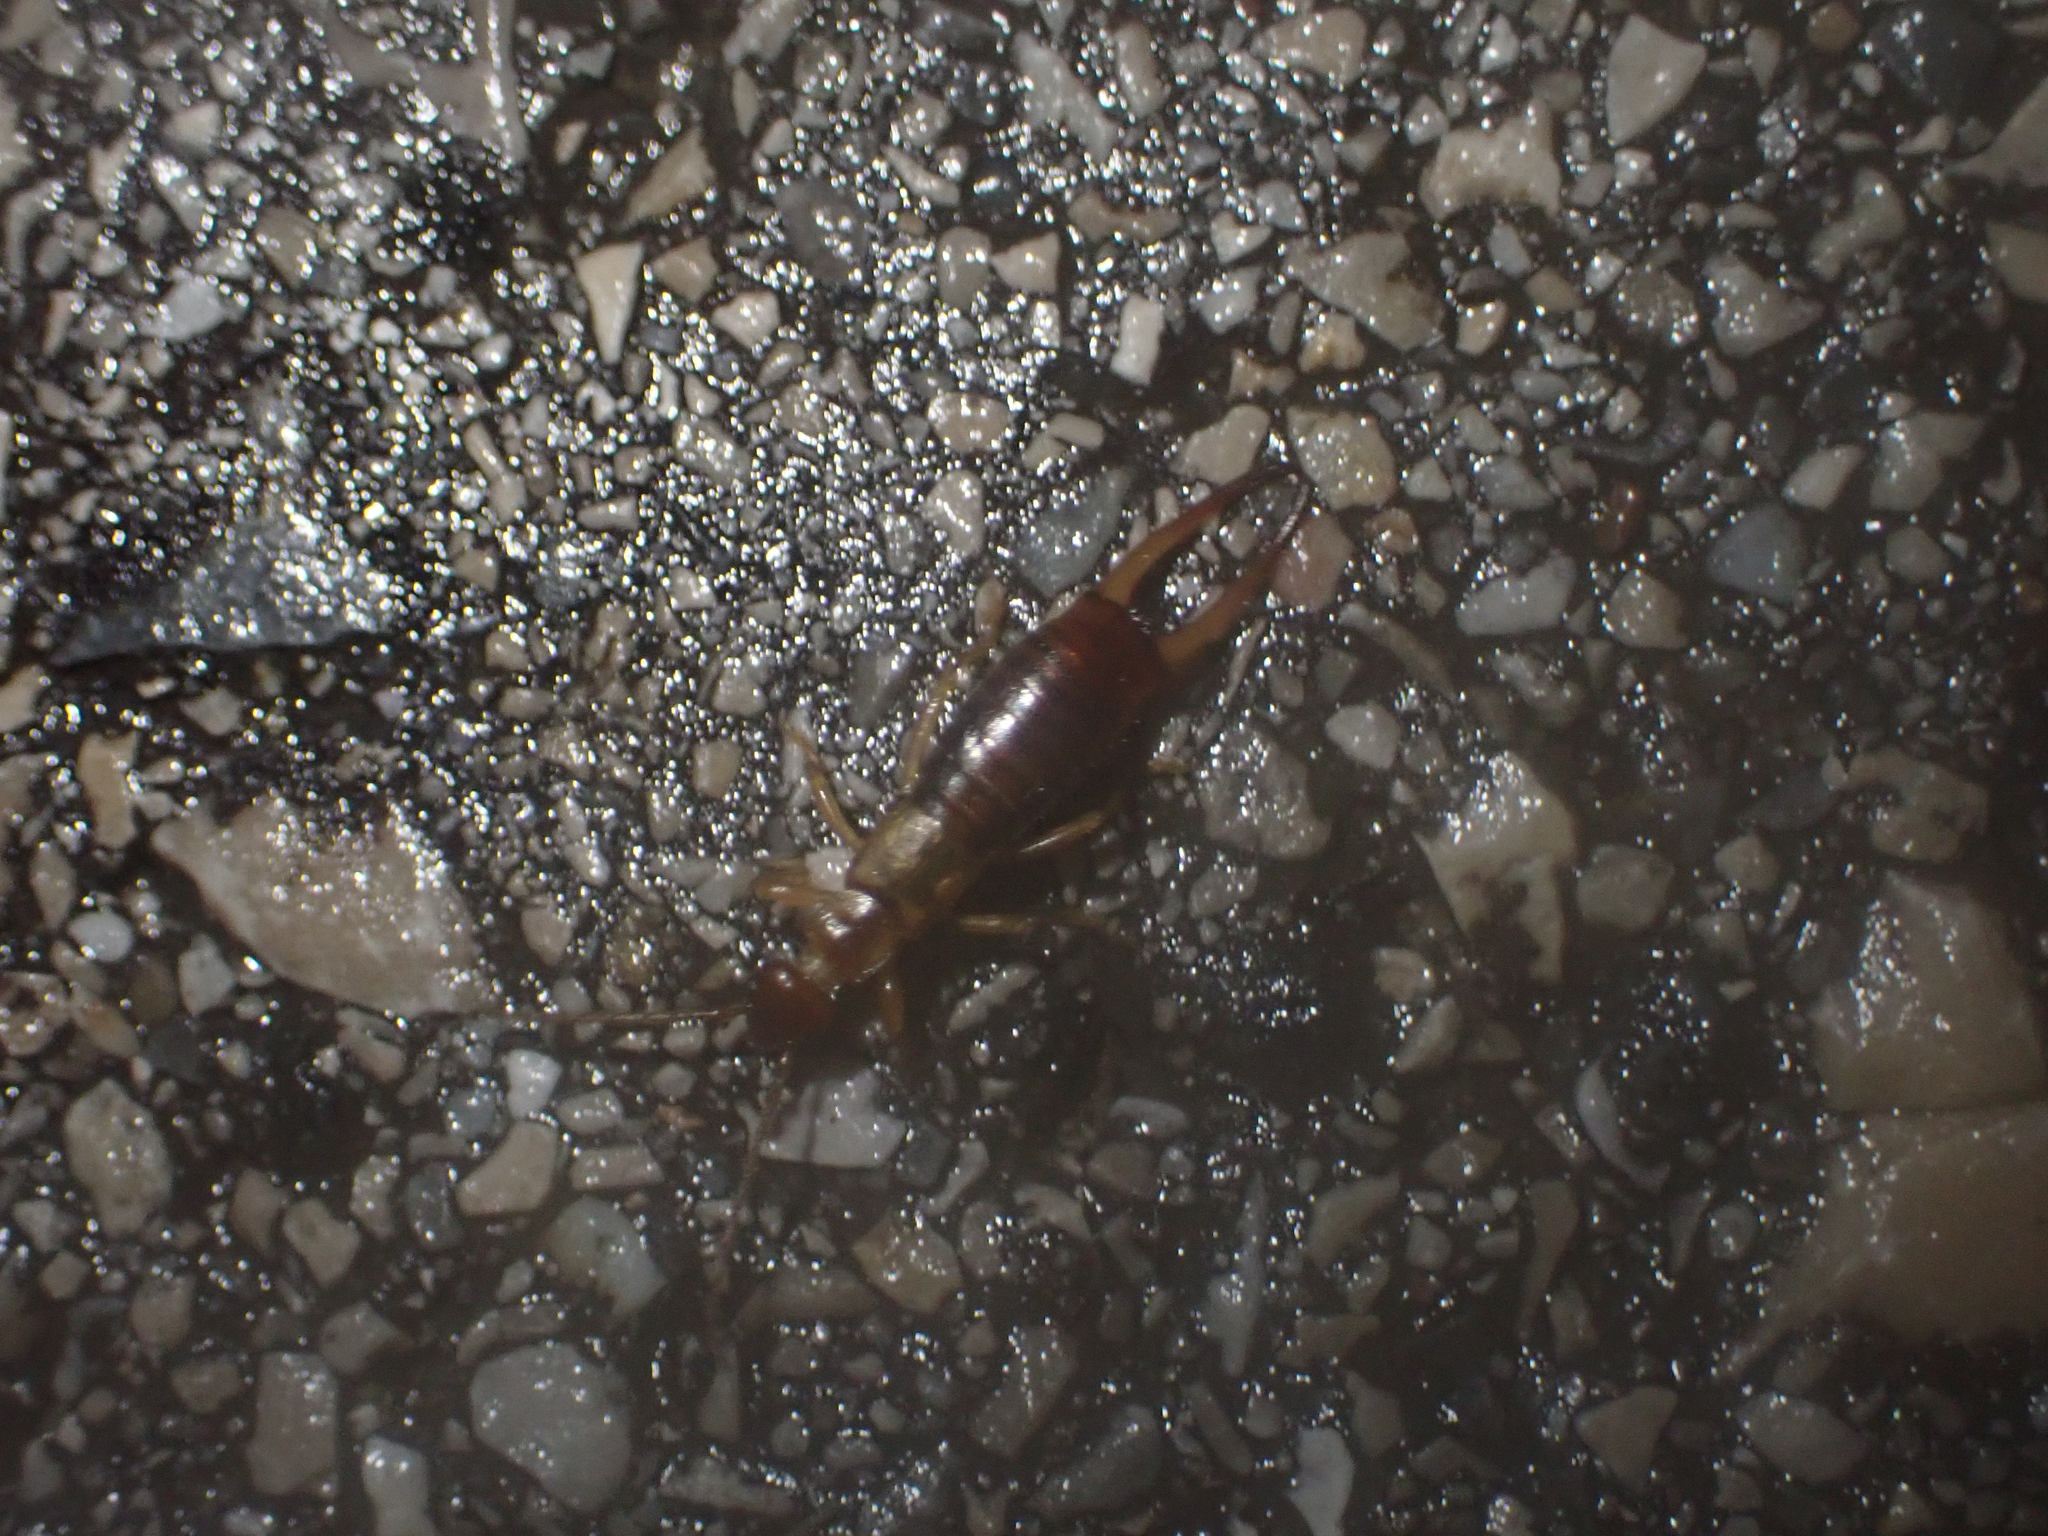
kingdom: Animalia
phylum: Arthropoda
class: Insecta
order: Dermaptera
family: Forficulidae
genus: Apterygida
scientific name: Apterygida albipennis
